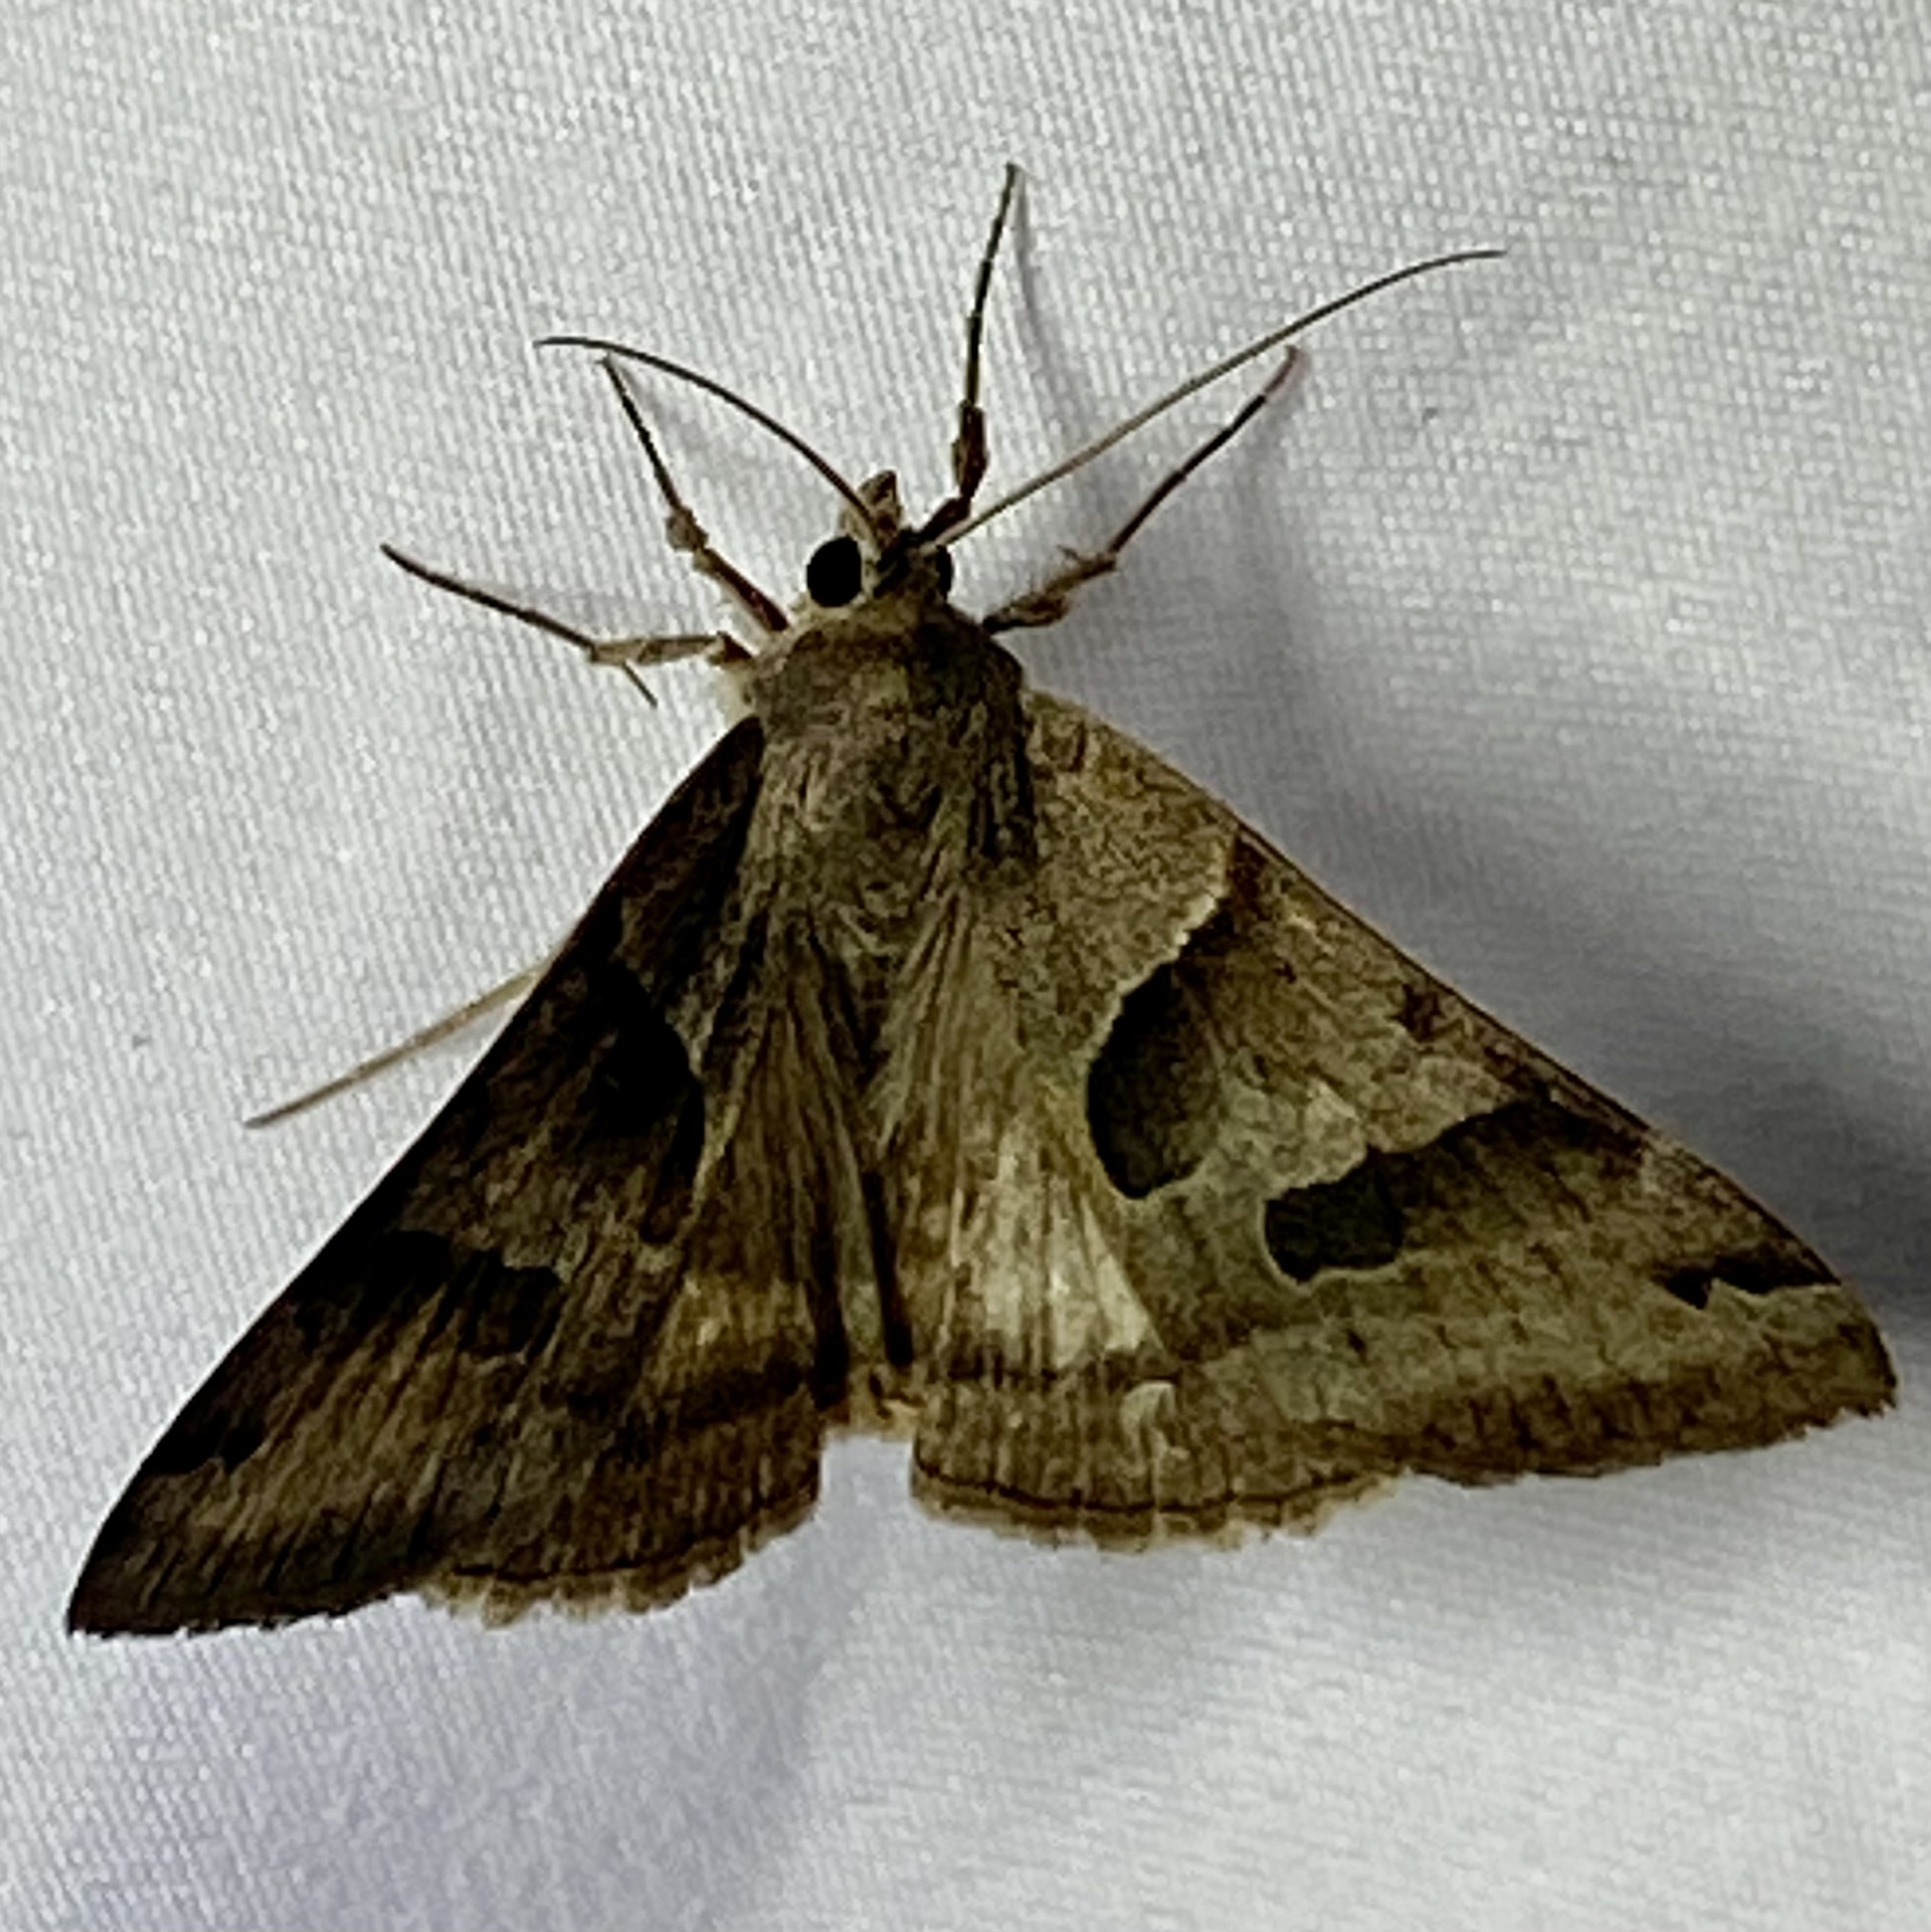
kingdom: Animalia
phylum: Arthropoda
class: Insecta
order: Lepidoptera
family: Erebidae
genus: Caenurgina
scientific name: Caenurgina erechtea
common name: Forage looper moth
